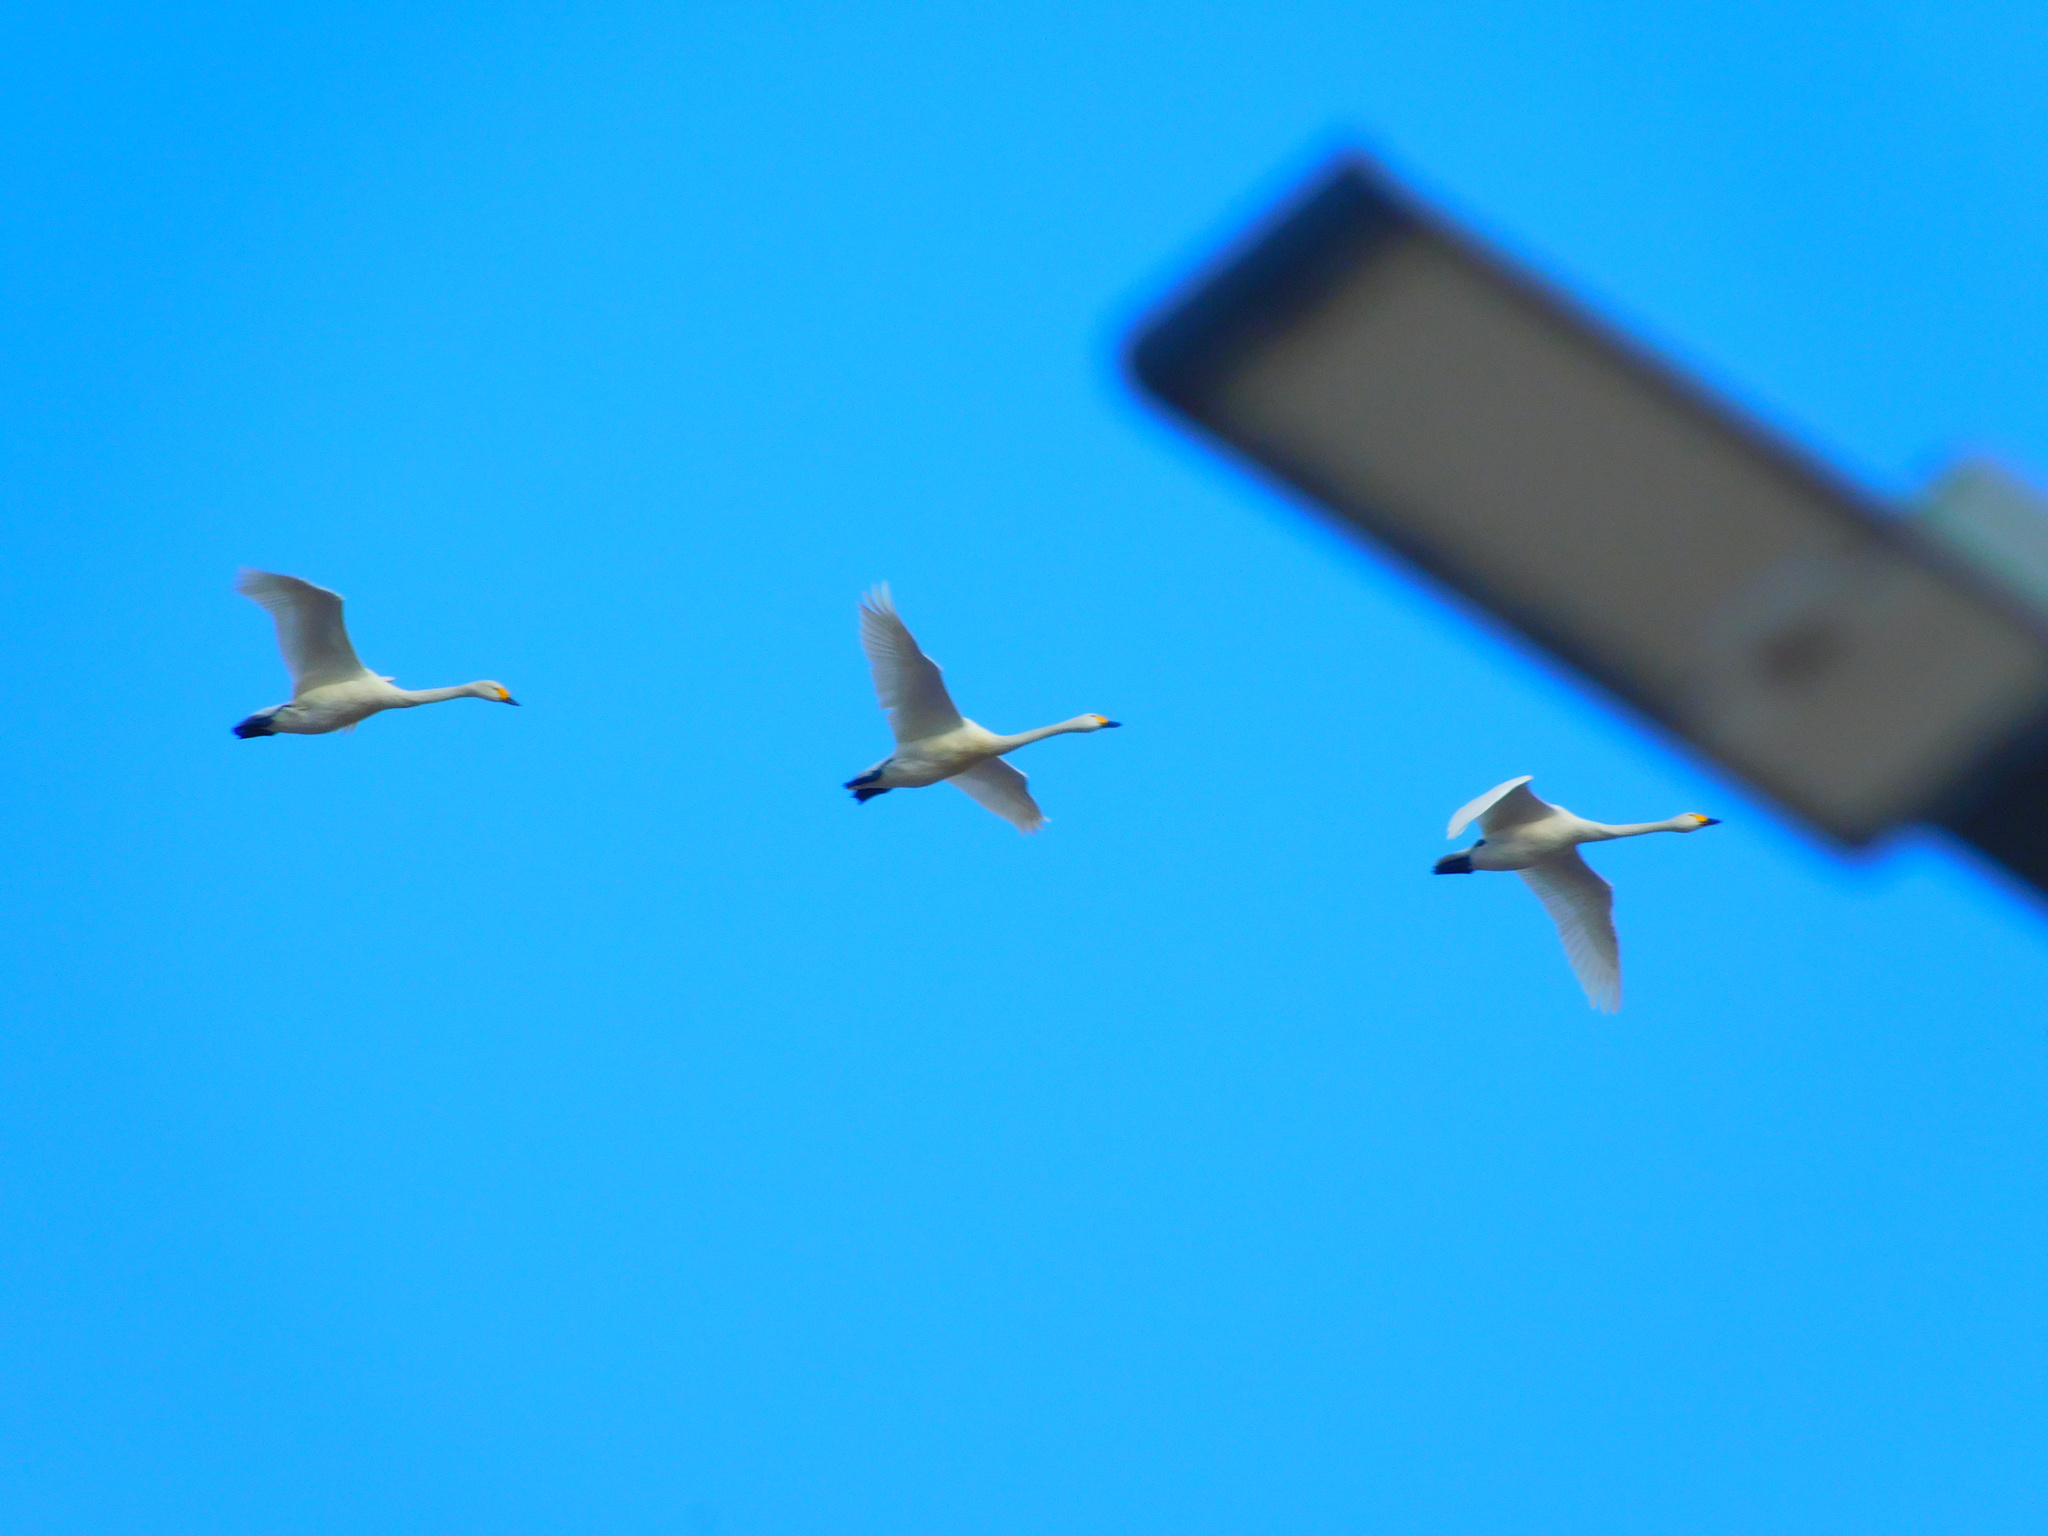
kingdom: Animalia
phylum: Chordata
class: Aves
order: Anseriformes
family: Anatidae
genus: Cygnus
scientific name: Cygnus cygnus
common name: Whooper swan
